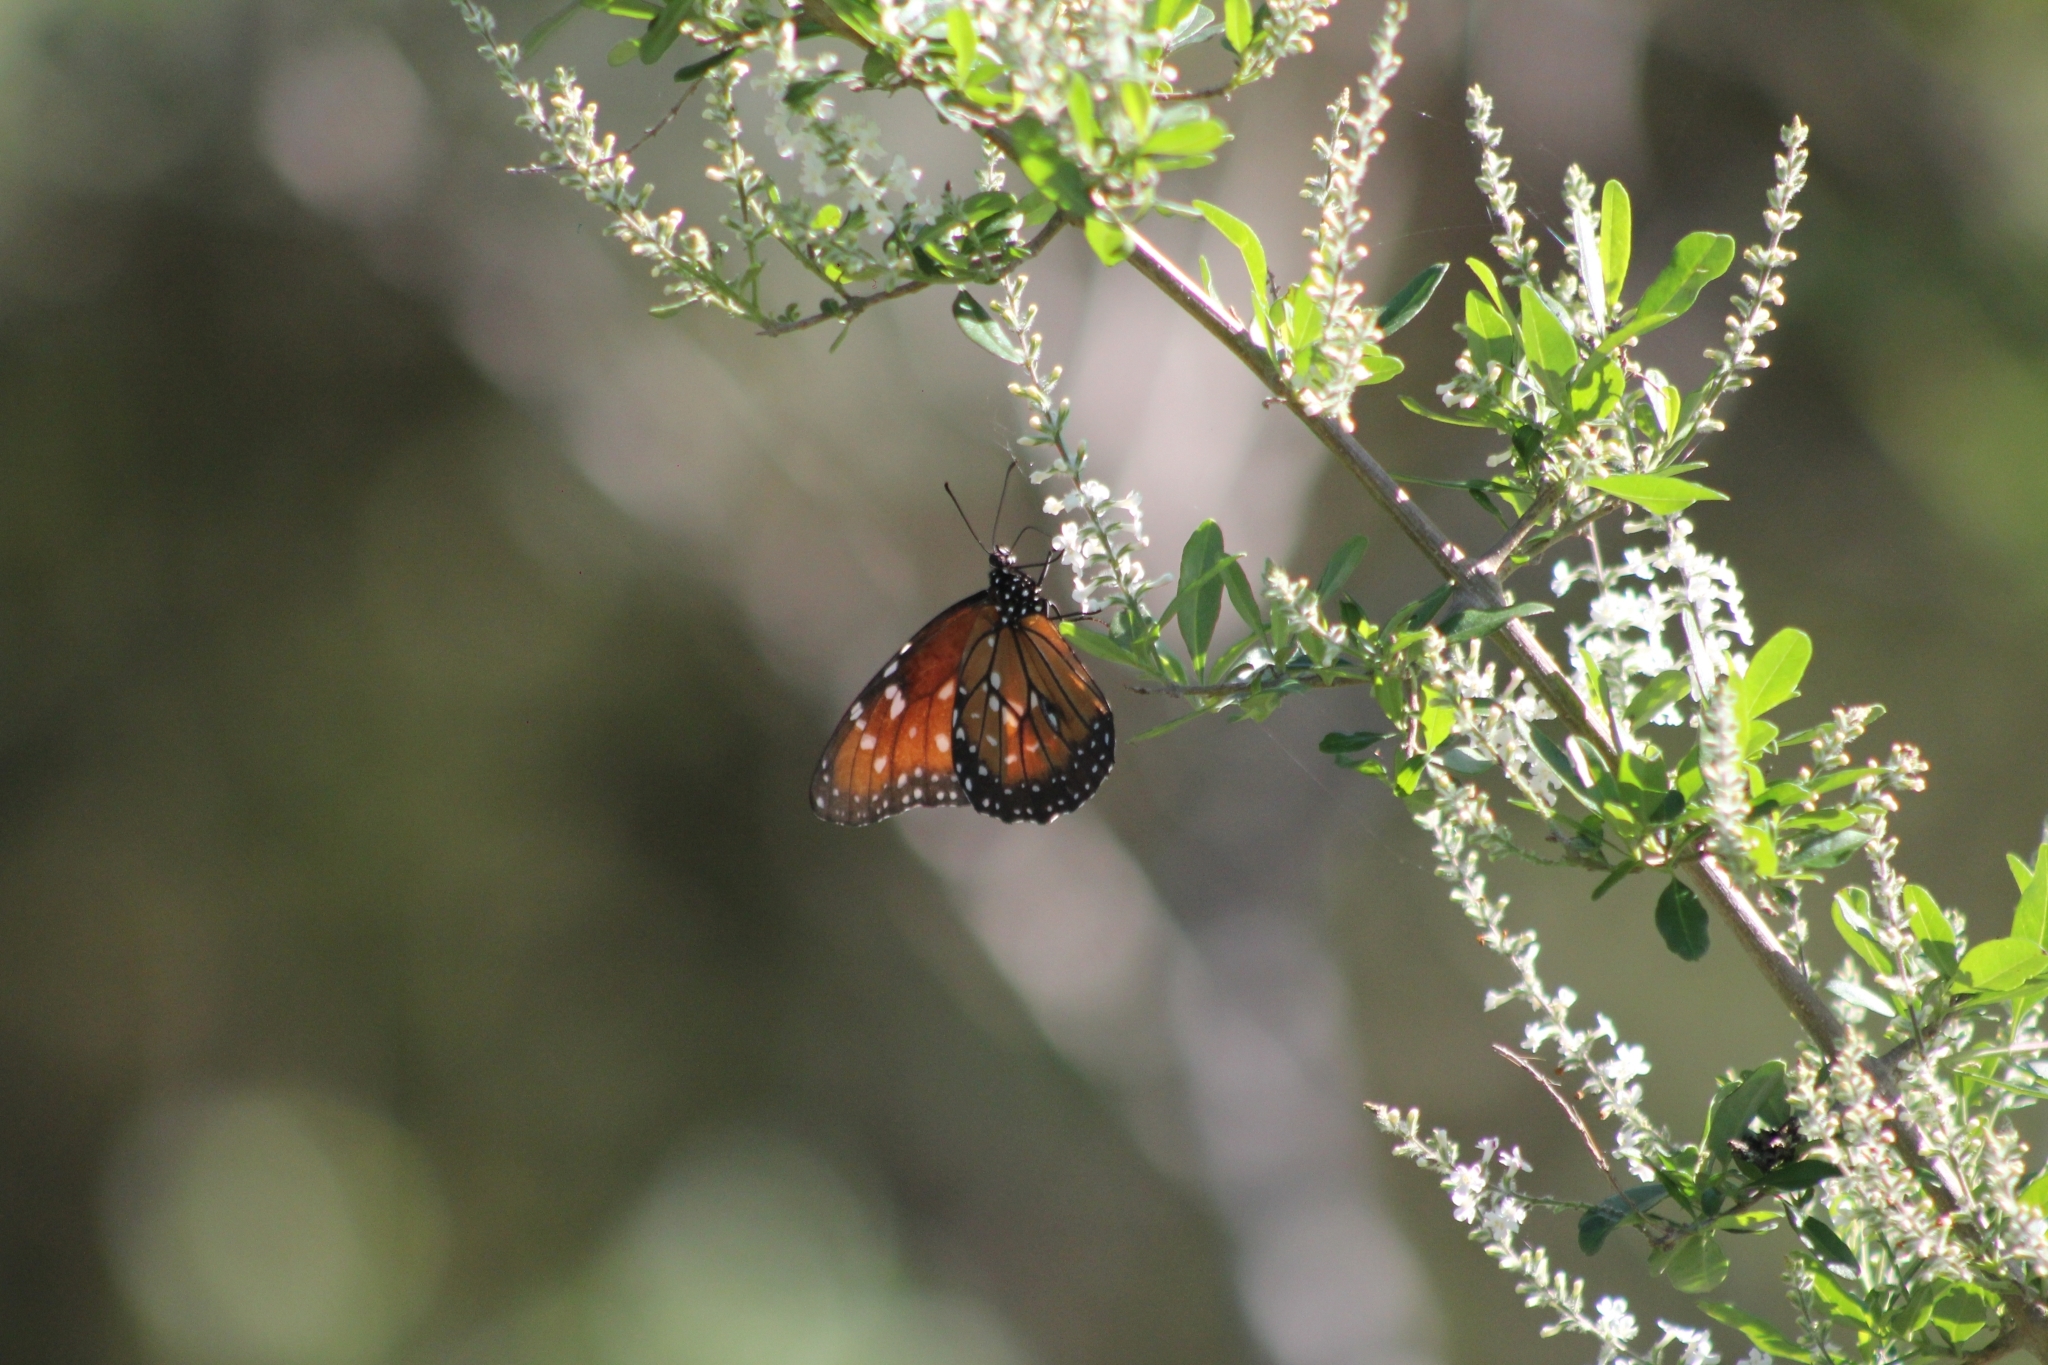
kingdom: Animalia
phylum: Arthropoda
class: Insecta
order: Lepidoptera
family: Nymphalidae
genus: Danaus
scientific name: Danaus eresimus
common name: Soldier
